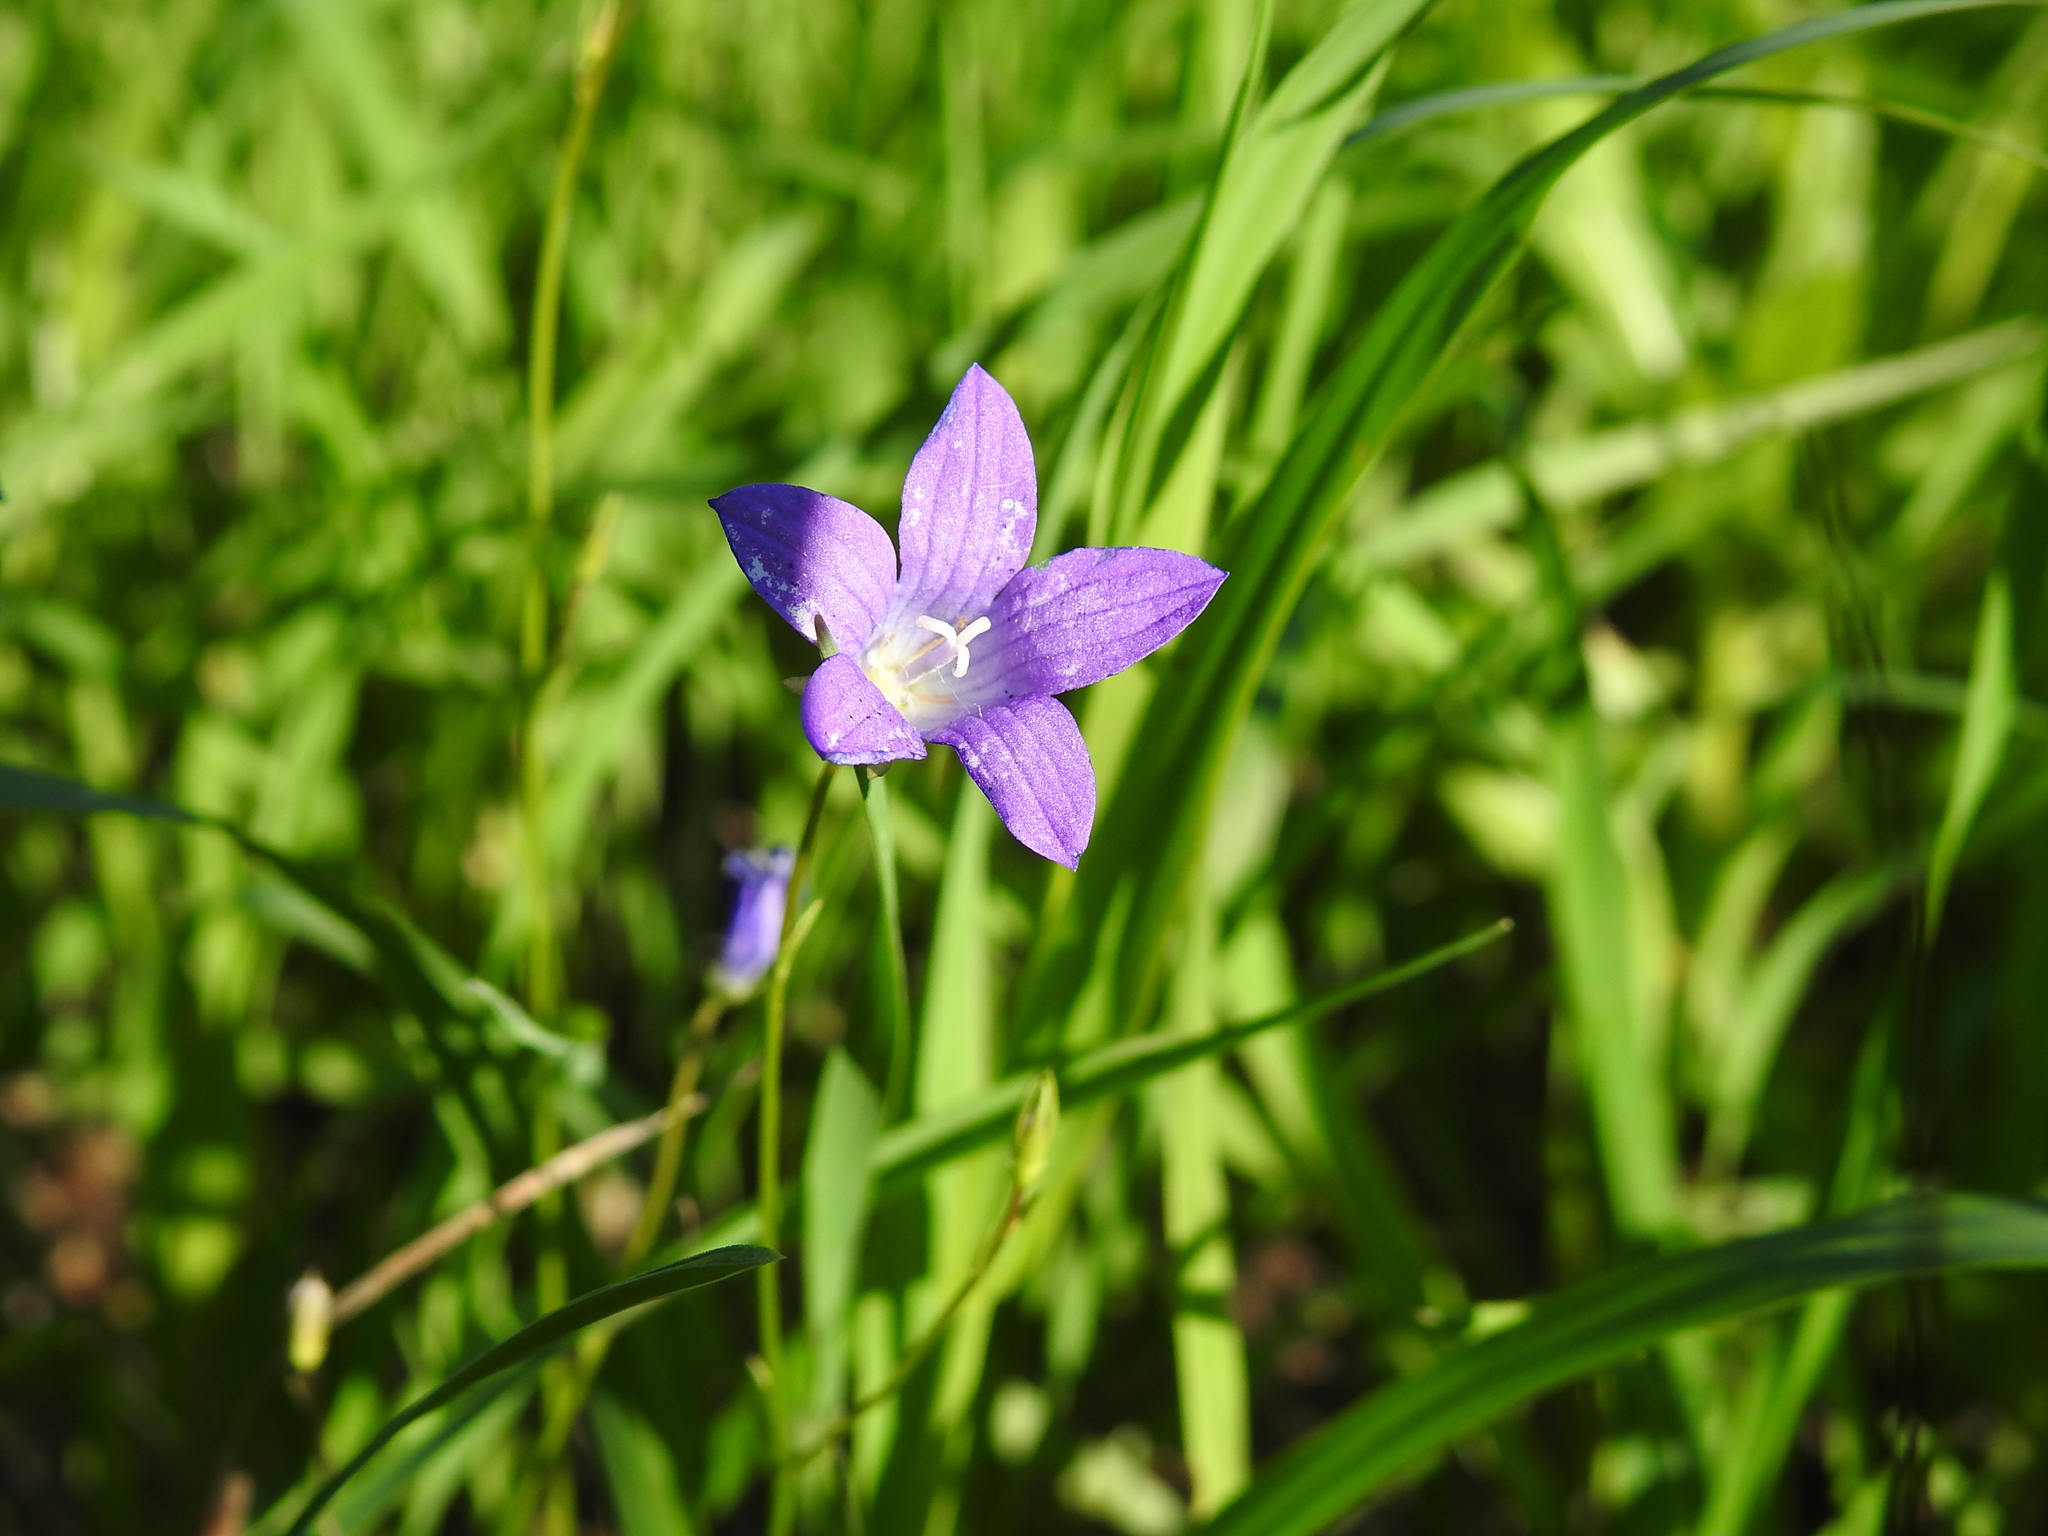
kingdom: Plantae
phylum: Tracheophyta
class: Magnoliopsida
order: Asterales
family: Campanulaceae
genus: Campanula
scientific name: Campanula patula
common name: Spreading bellflower
